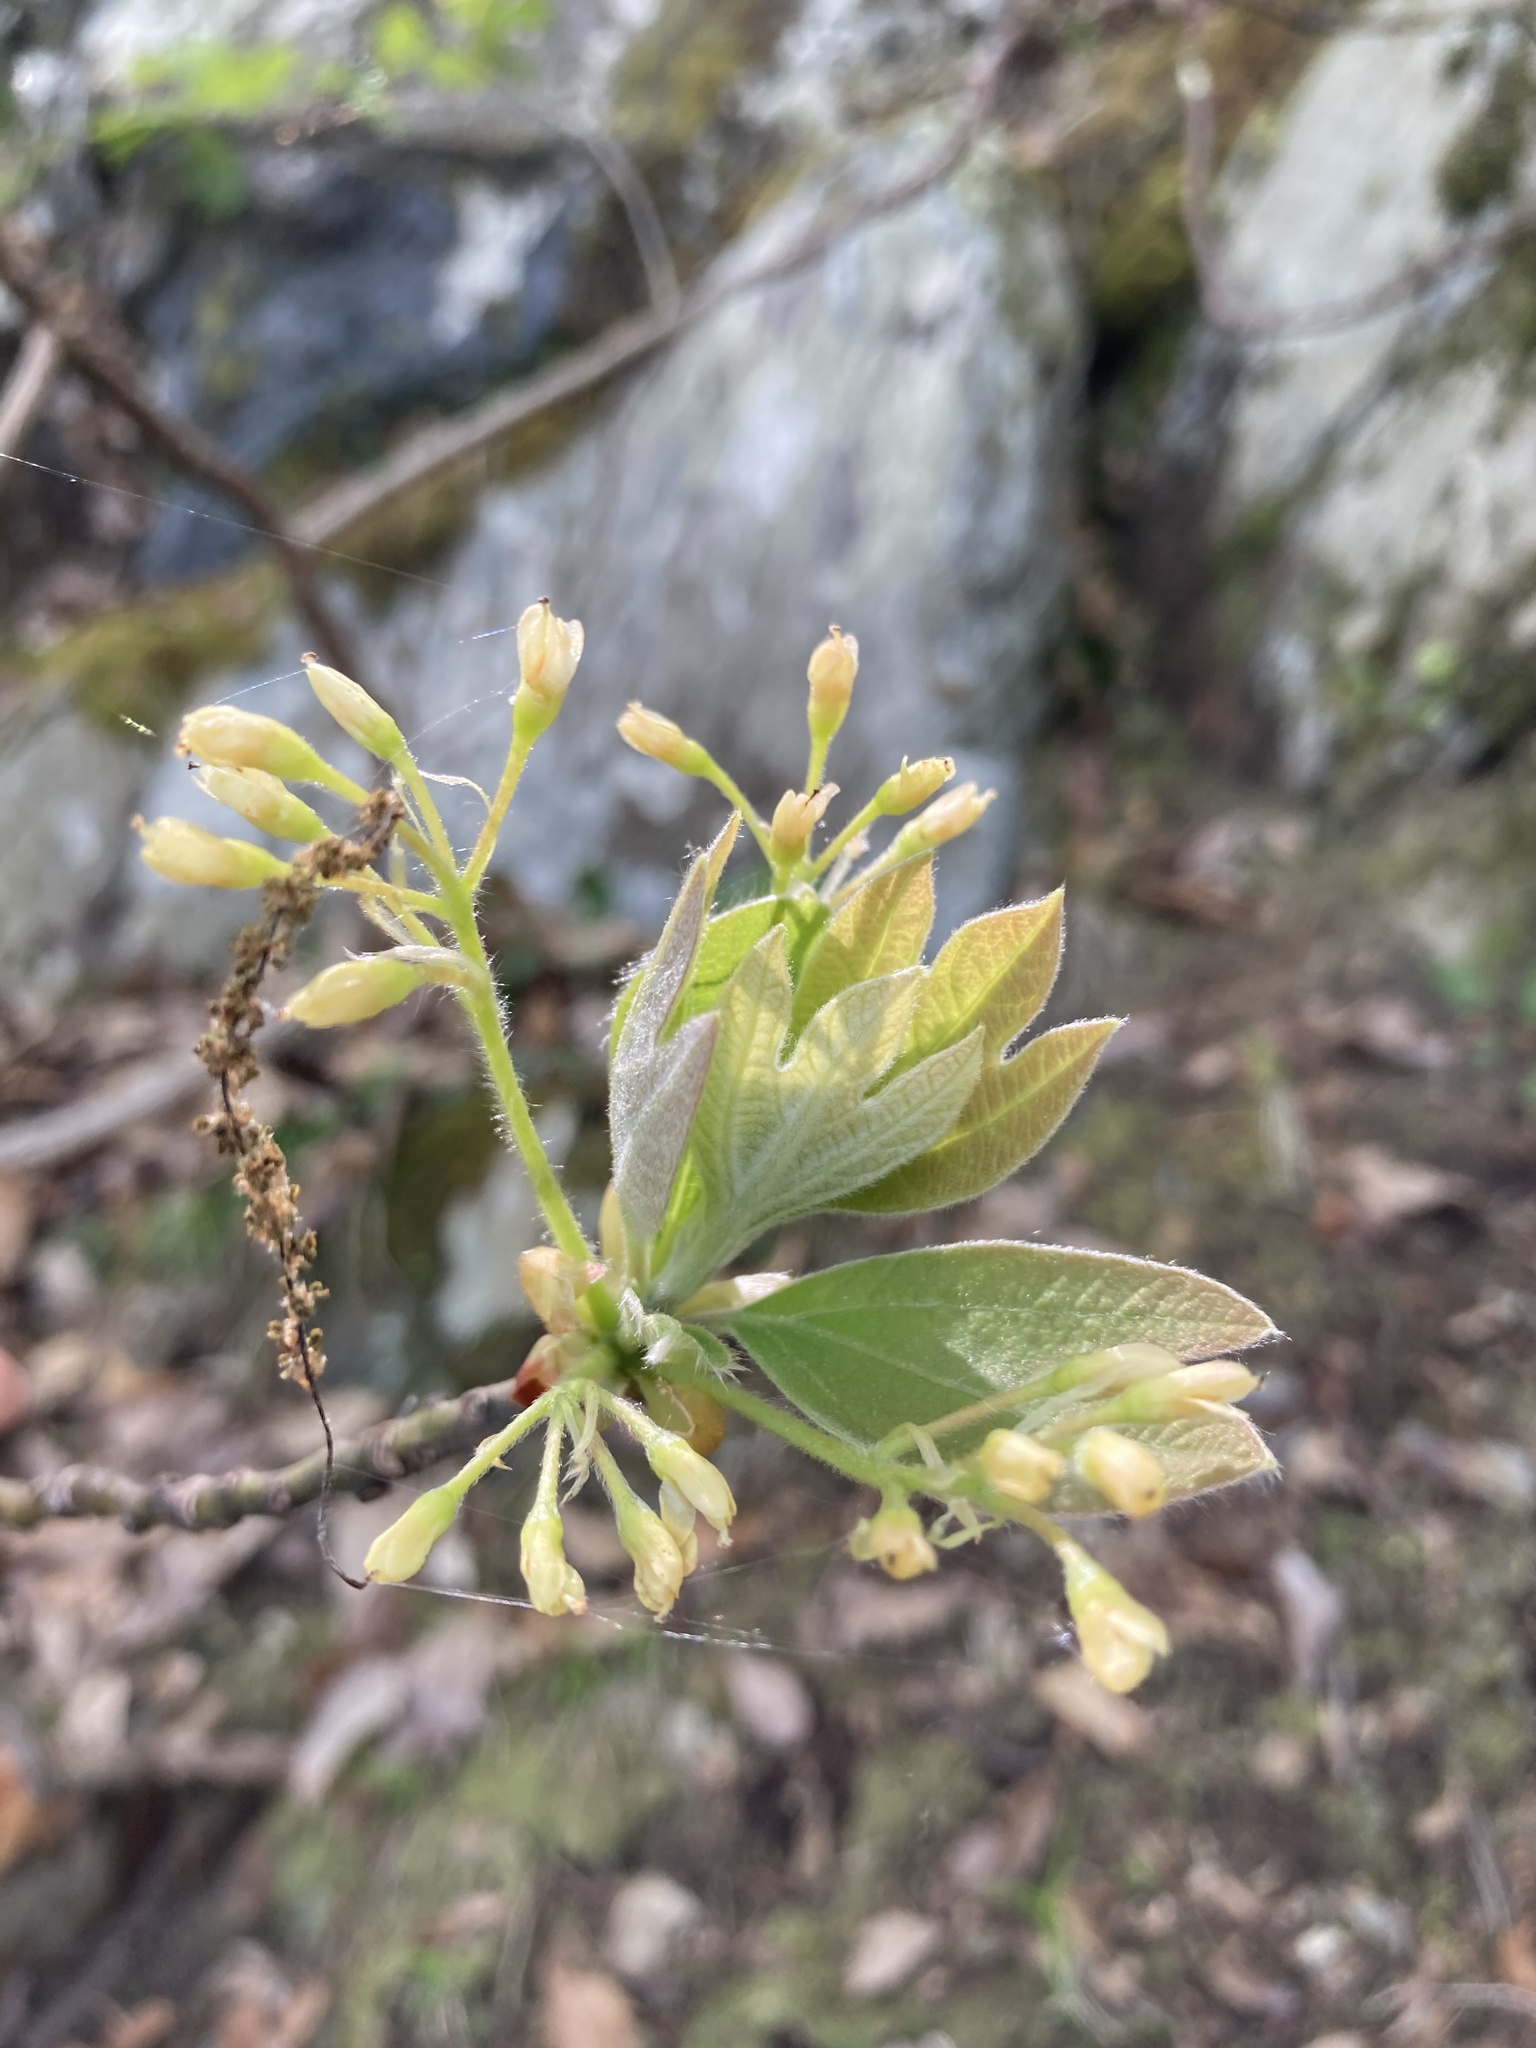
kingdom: Plantae
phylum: Tracheophyta
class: Magnoliopsida
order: Laurales
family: Lauraceae
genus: Sassafras
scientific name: Sassafras albidum
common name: Sassafras
